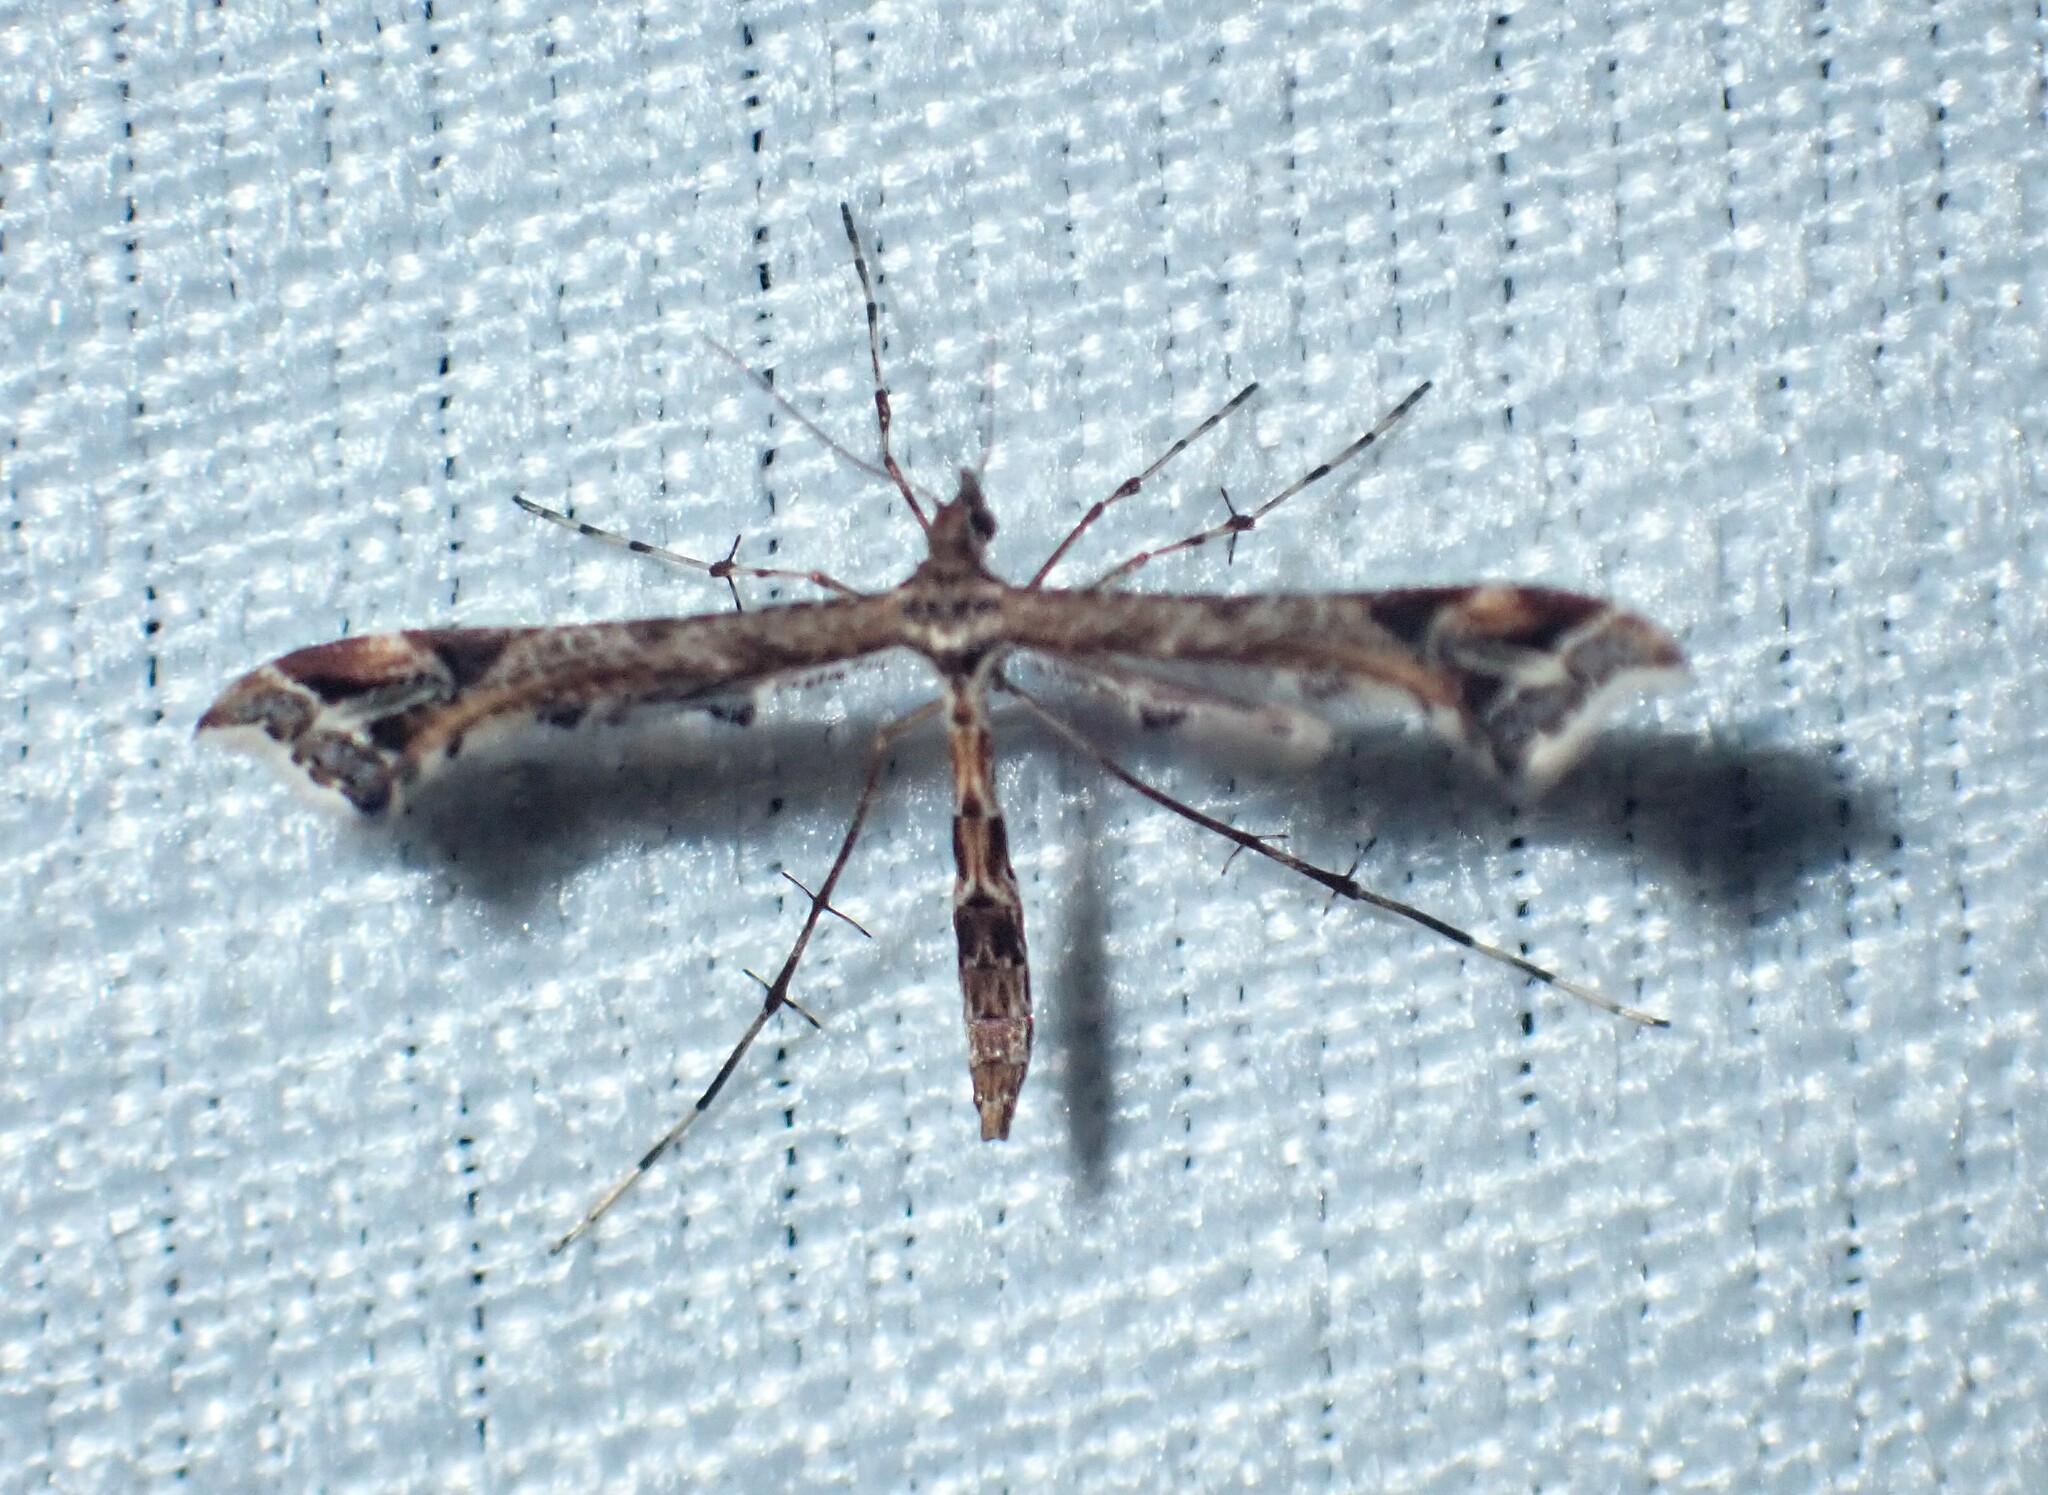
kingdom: Animalia
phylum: Arthropoda
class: Insecta
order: Lepidoptera
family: Pterophoridae
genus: Amblyptilia
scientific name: Amblyptilia acanthadactyla
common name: Beautiful plume
